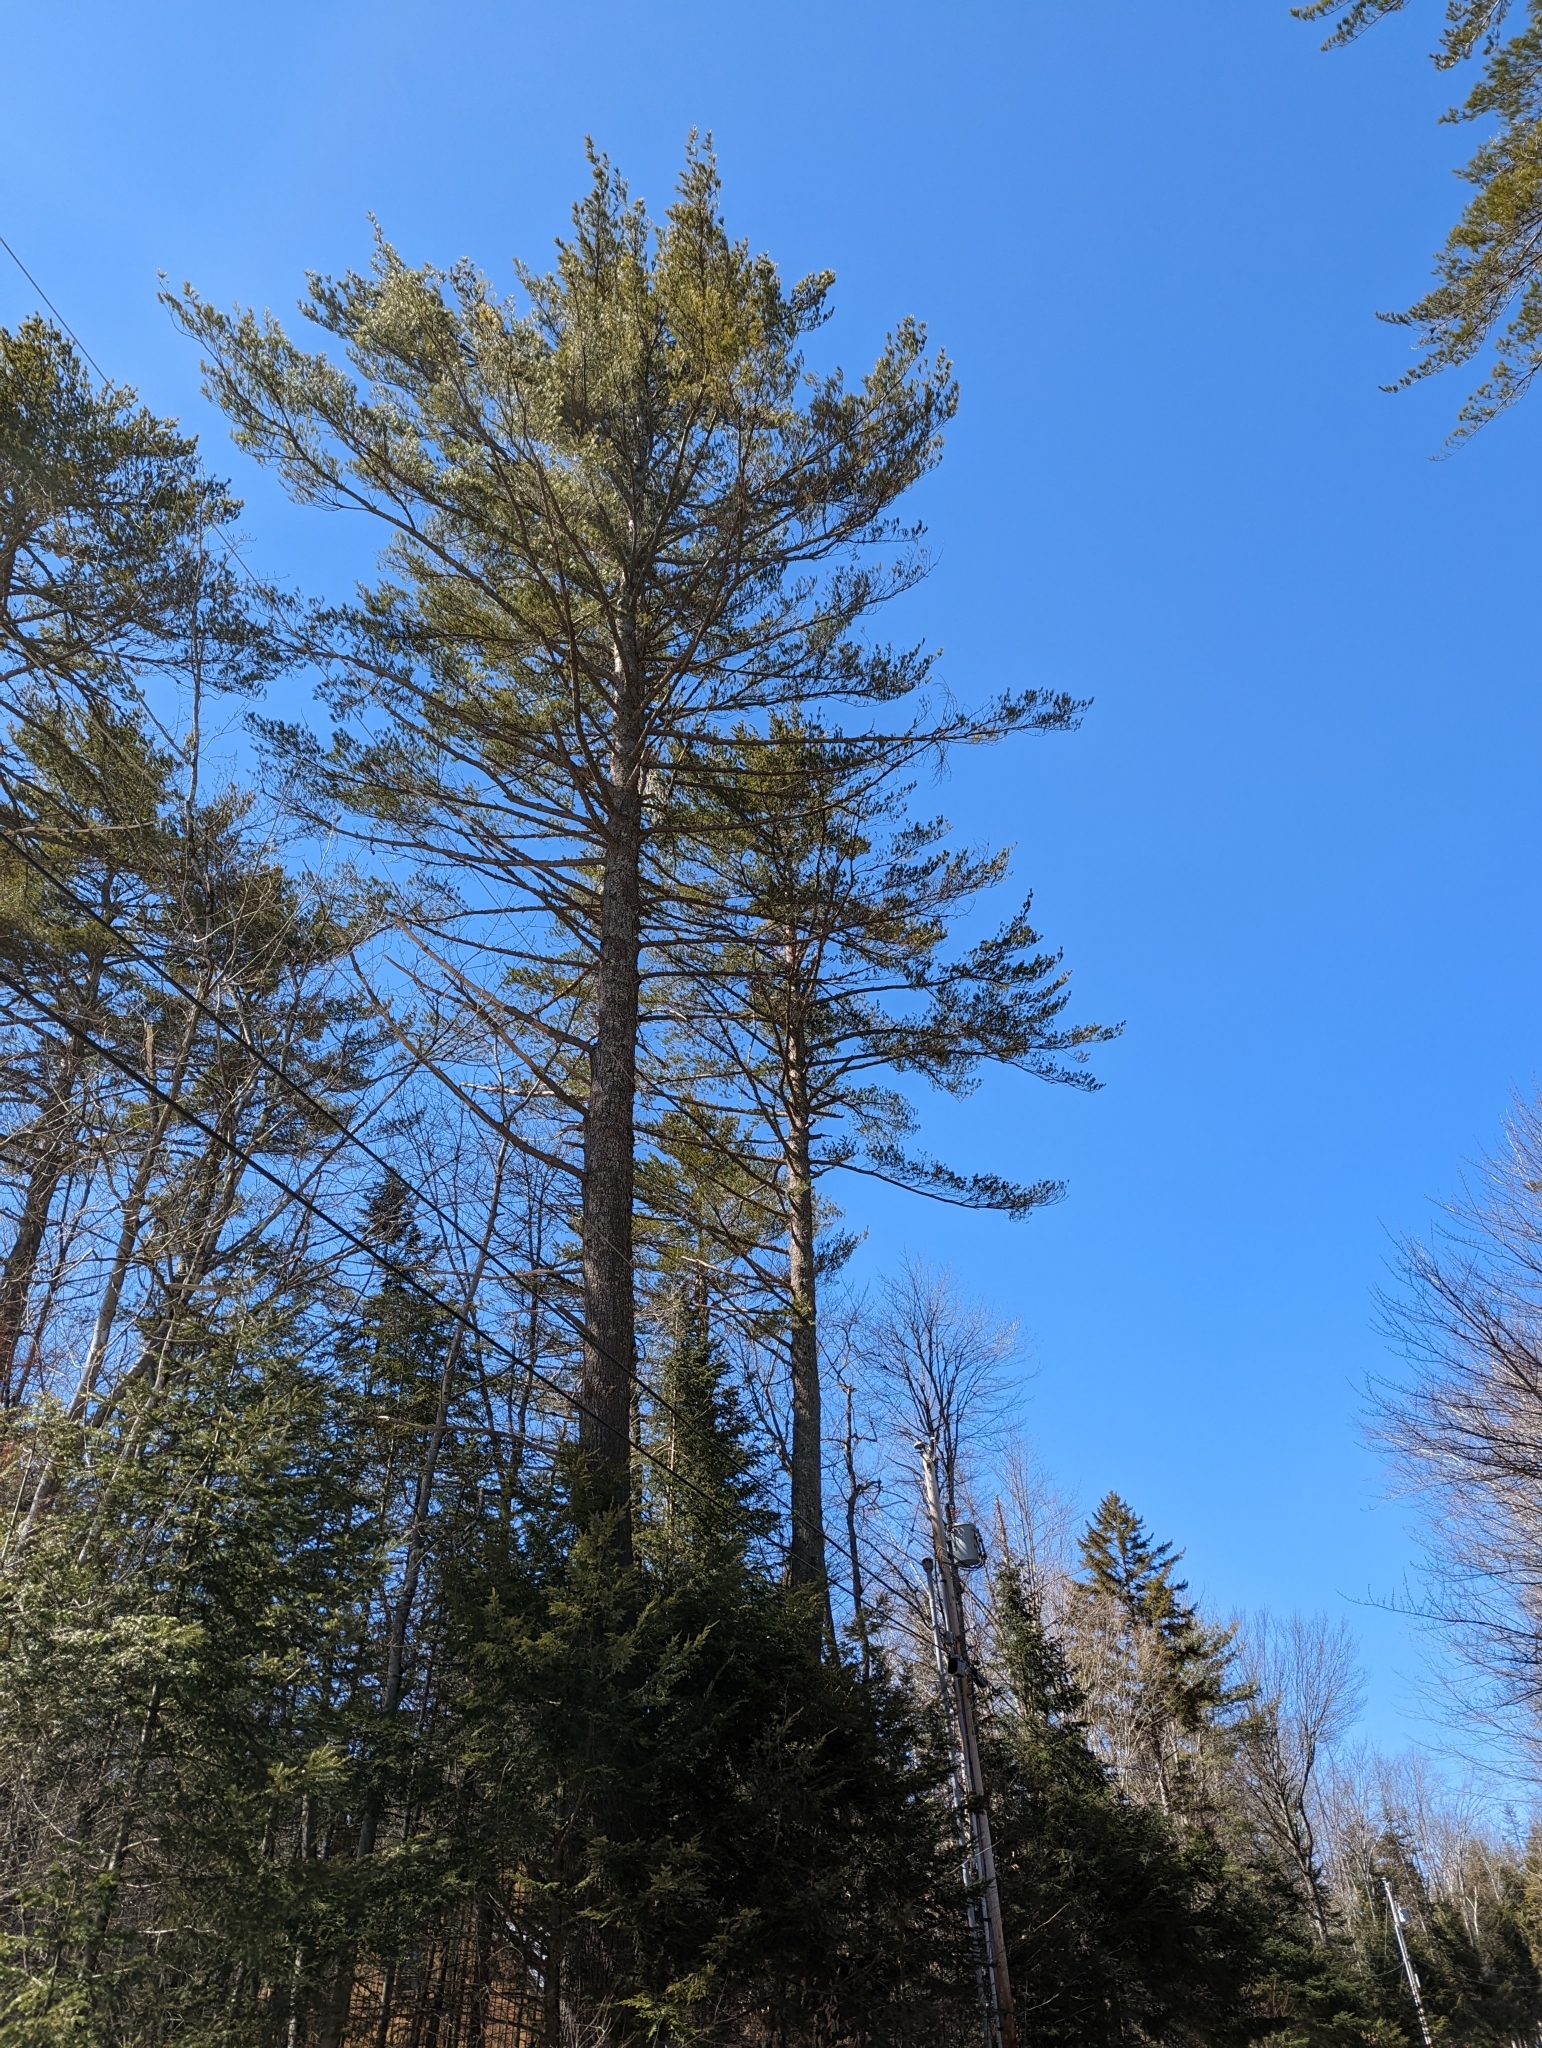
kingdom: Plantae
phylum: Tracheophyta
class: Pinopsida
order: Pinales
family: Pinaceae
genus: Pinus
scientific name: Pinus strobus
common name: Weymouth pine
